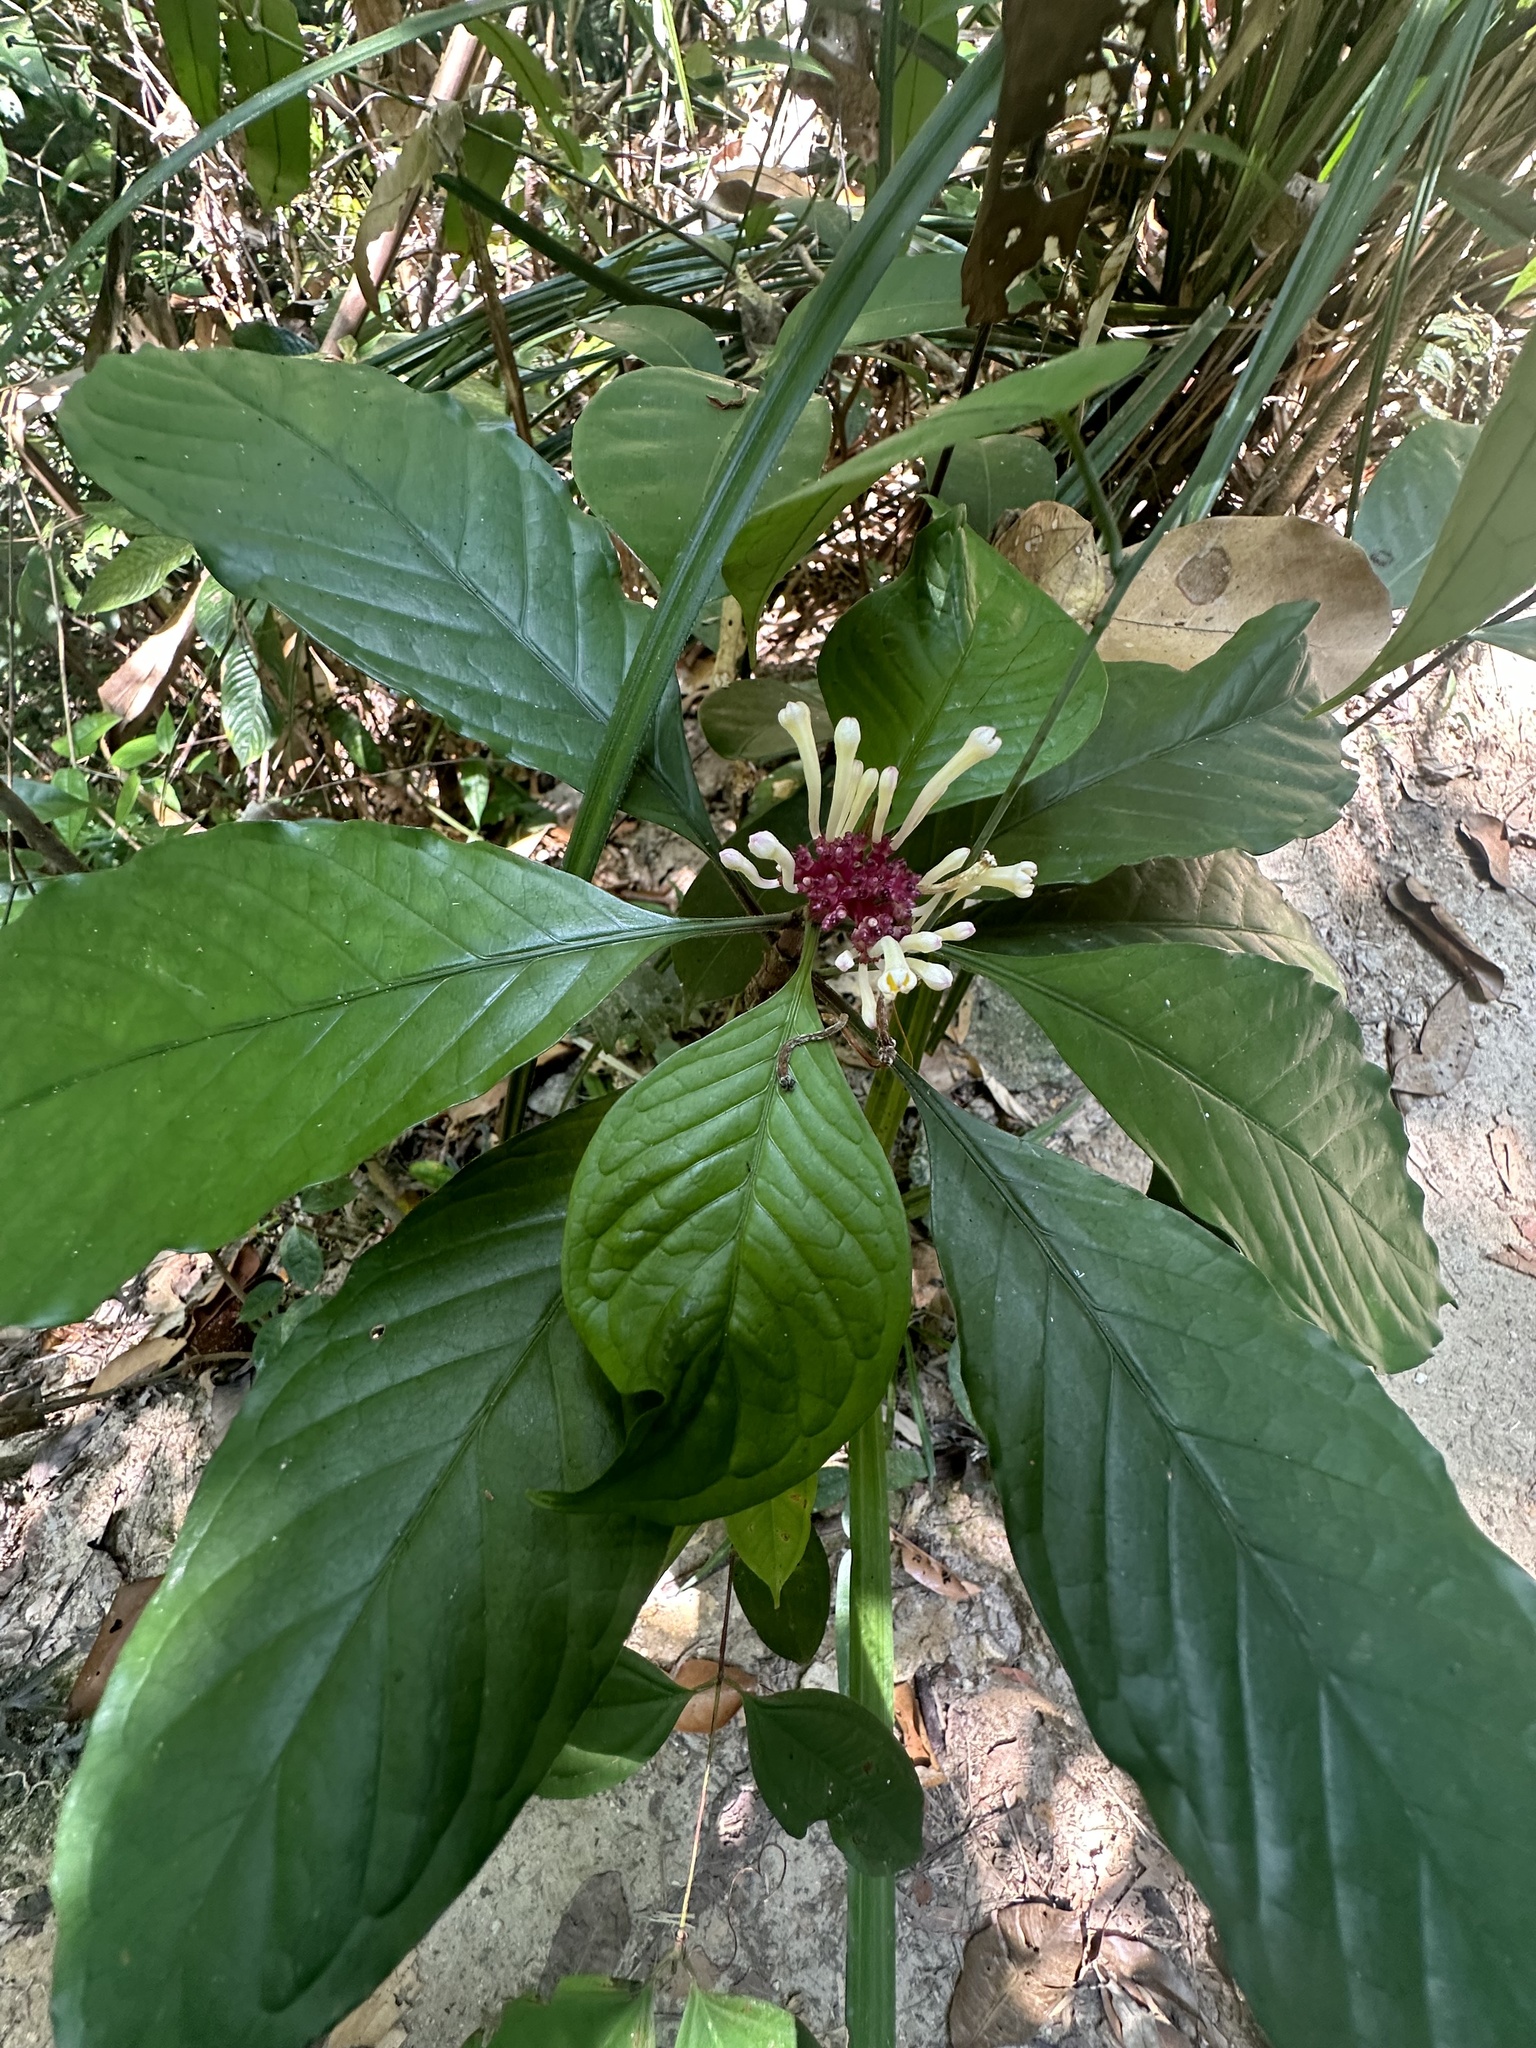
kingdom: Plantae
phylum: Tracheophyta
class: Magnoliopsida
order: Gentianales
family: Rubiaceae
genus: Chassalia
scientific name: Chassalia curviflora
